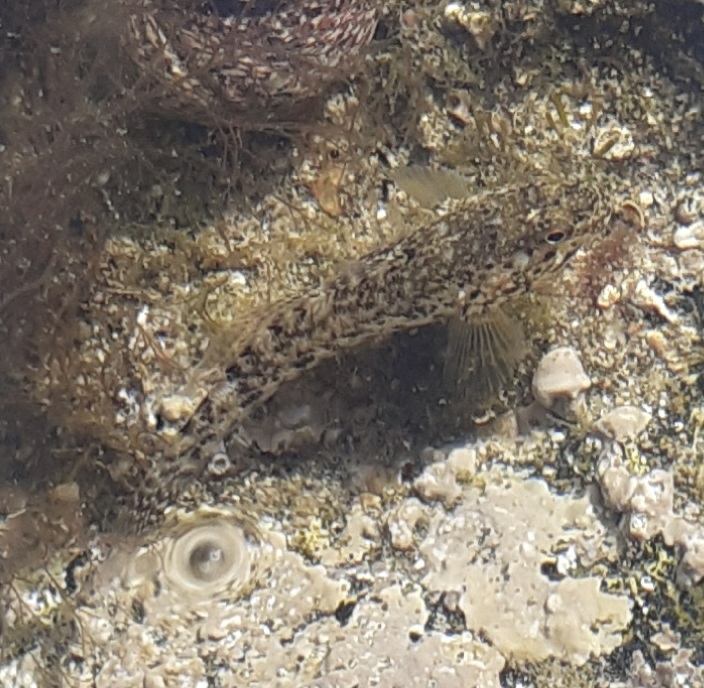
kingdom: Animalia
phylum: Chordata
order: Perciformes
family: Gobiidae
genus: Gobius
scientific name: Gobius cobitis
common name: Giant goby
